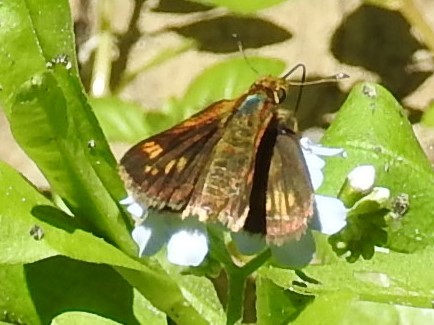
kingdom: Animalia
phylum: Arthropoda
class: Insecta
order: Lepidoptera
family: Hesperiidae
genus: Polites
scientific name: Polites coras
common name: Peck's skipper
